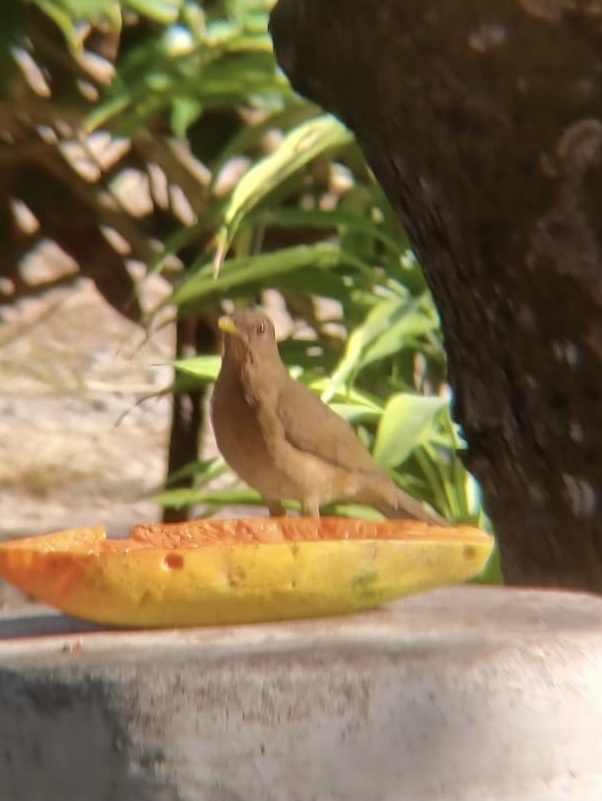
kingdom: Animalia
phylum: Chordata
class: Aves
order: Passeriformes
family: Turdidae
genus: Turdus
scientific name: Turdus grayi
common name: Clay-colored thrush
